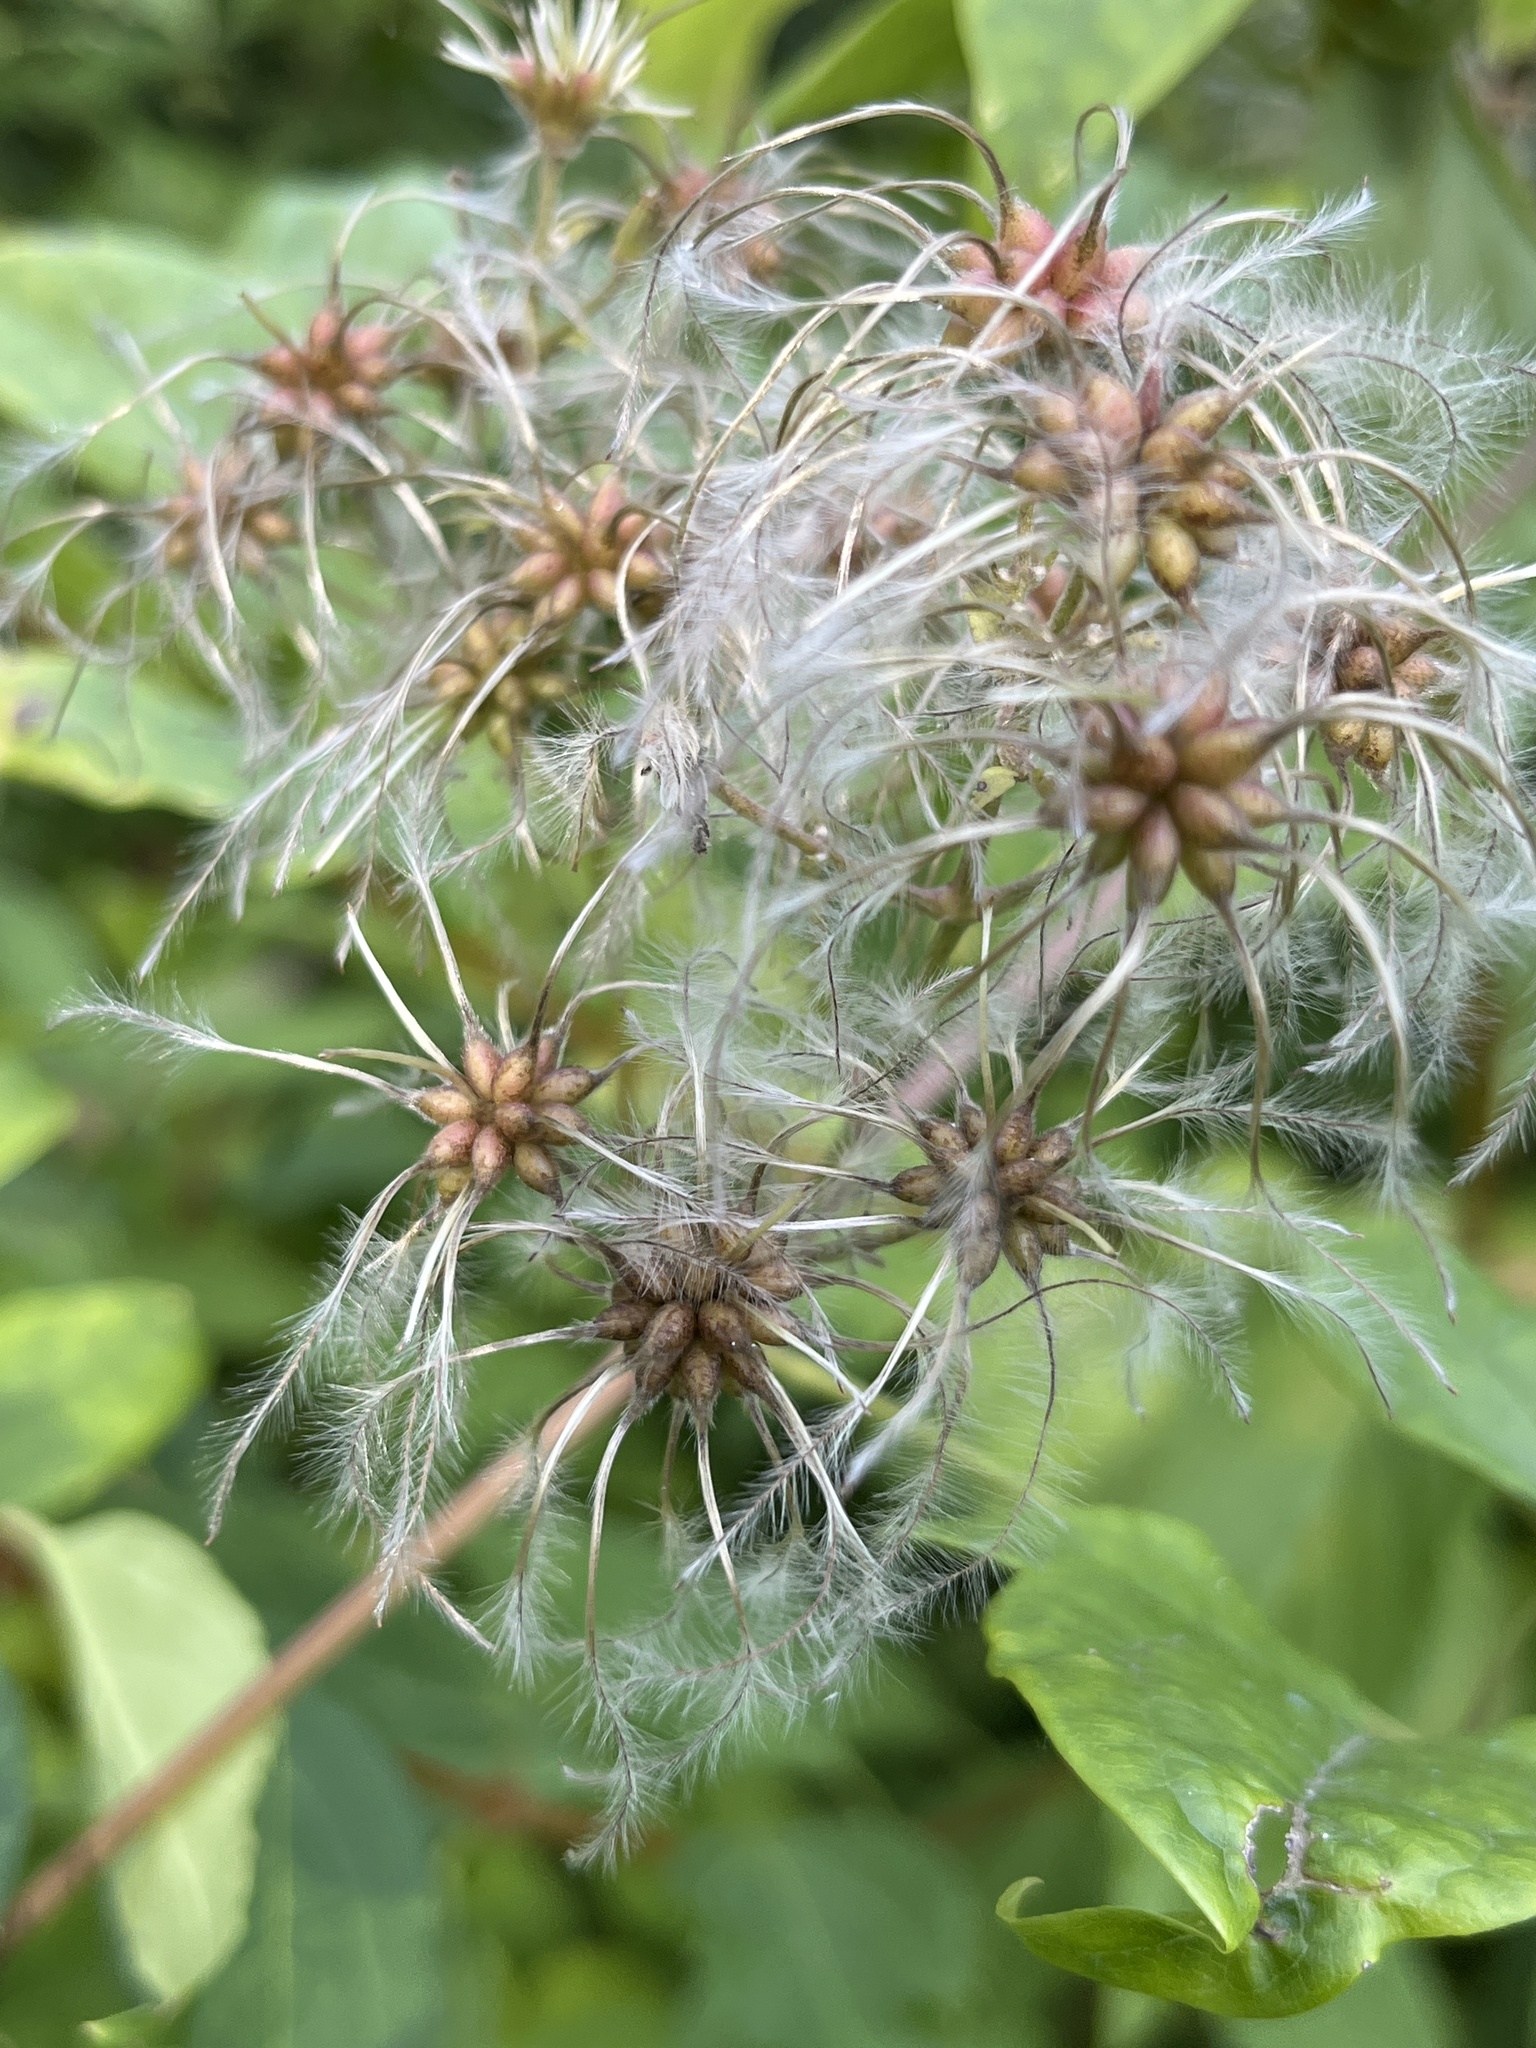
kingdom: Plantae
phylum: Tracheophyta
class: Magnoliopsida
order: Ranunculales
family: Ranunculaceae
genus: Clematis
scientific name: Clematis vitalba
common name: Evergreen clematis
